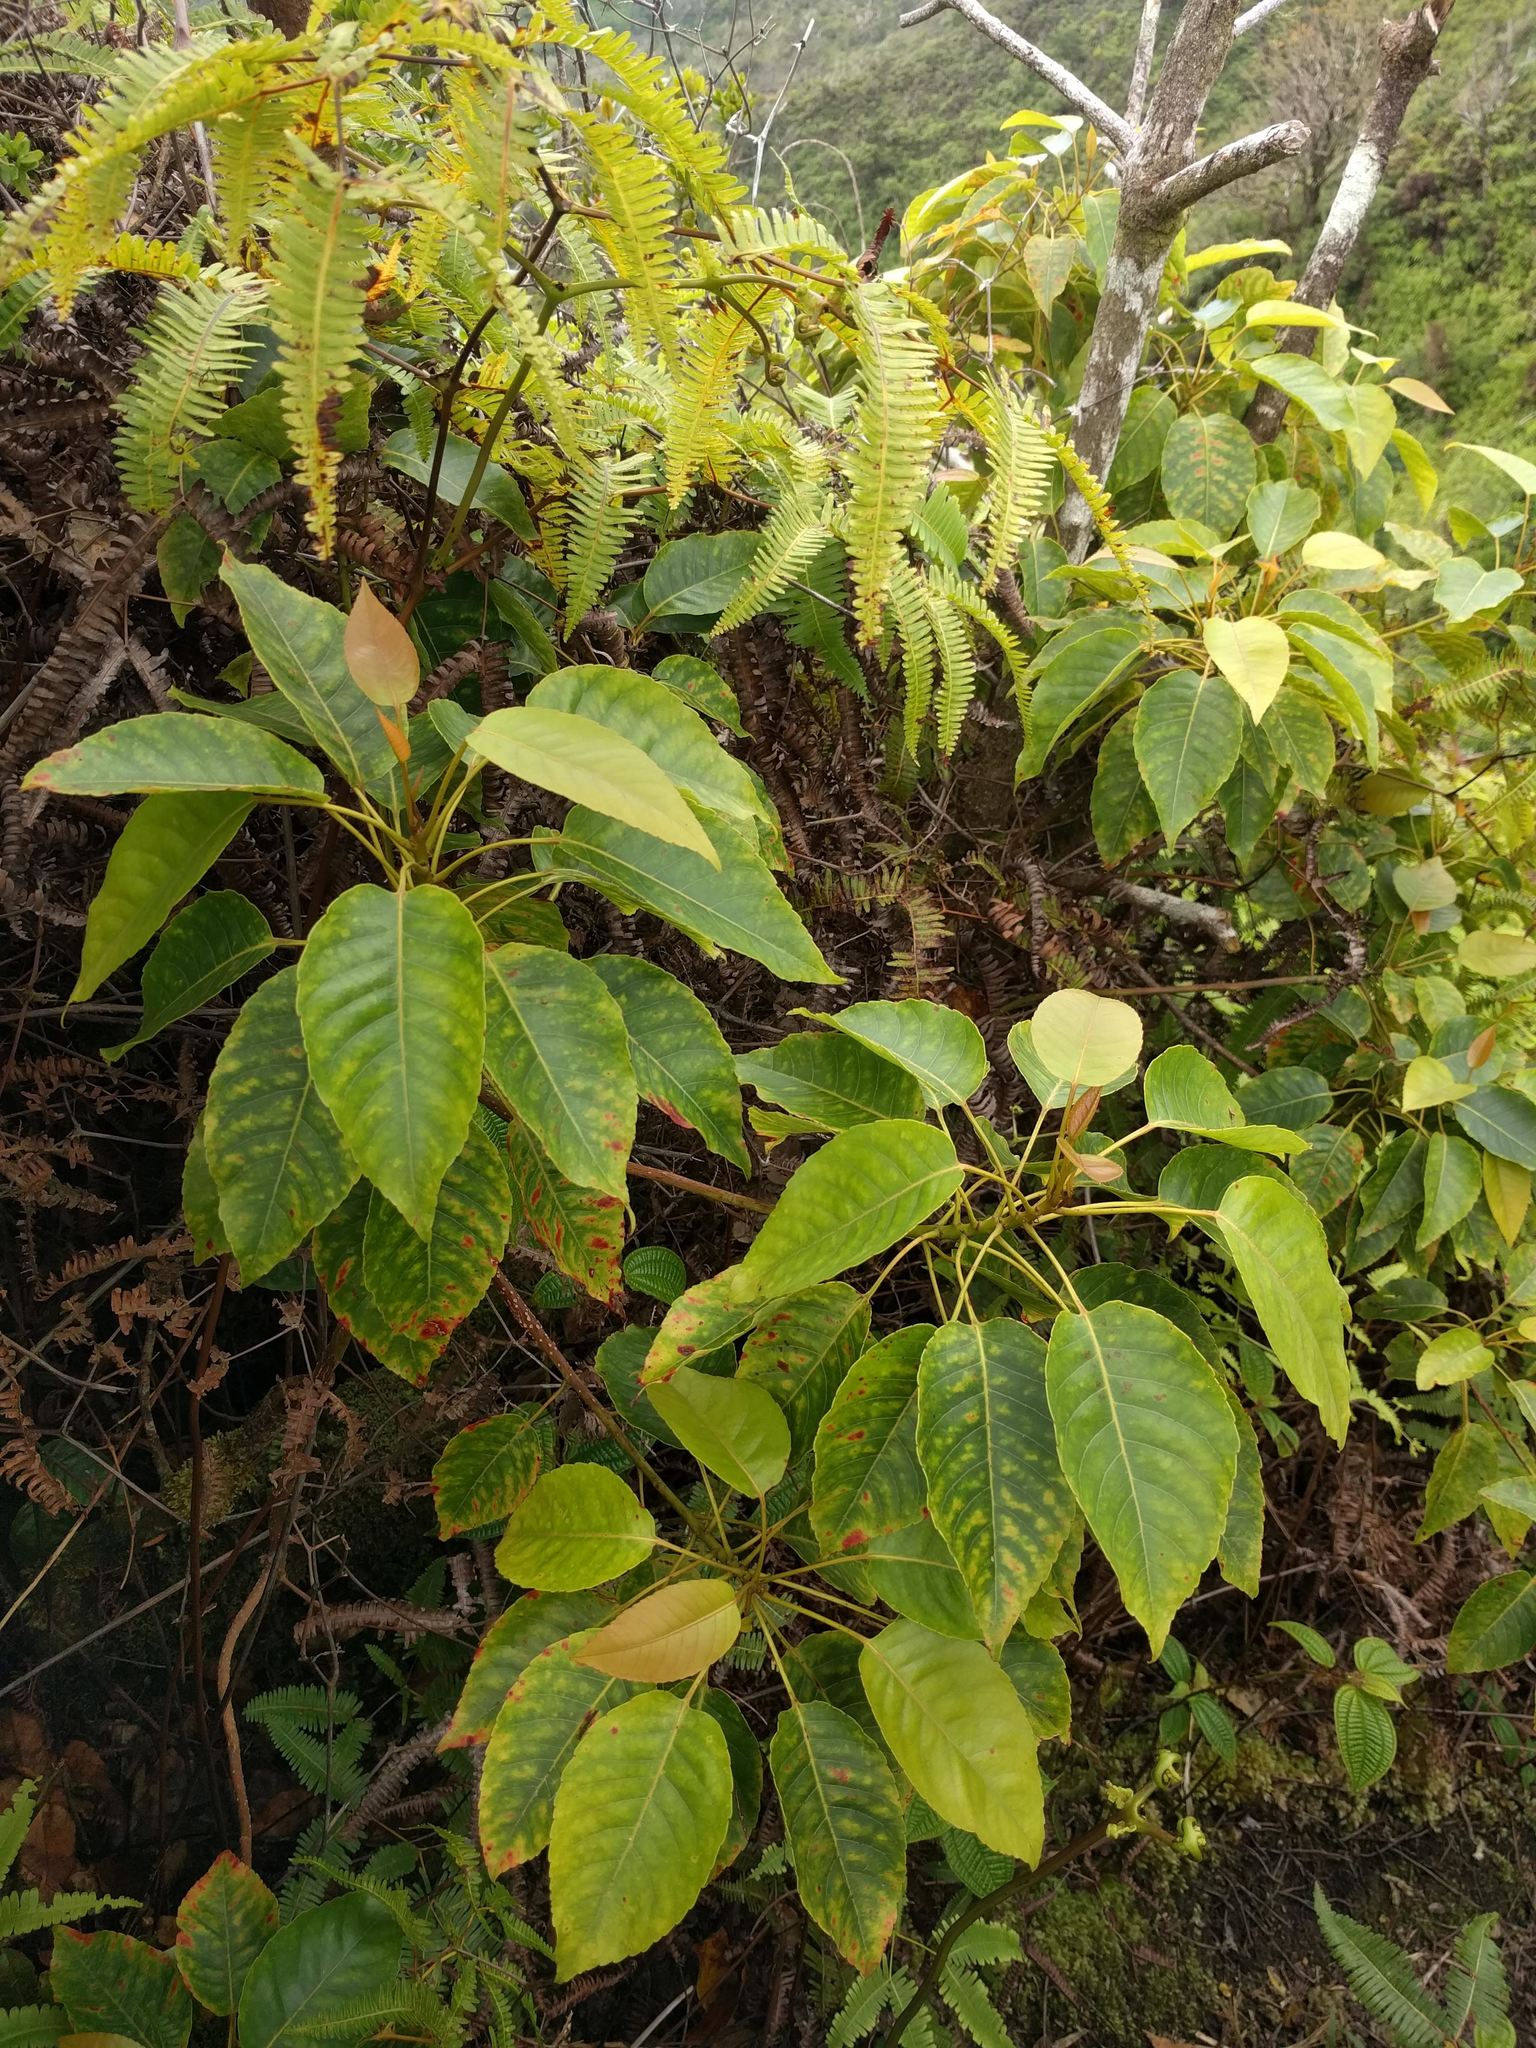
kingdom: Plantae
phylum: Tracheophyta
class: Magnoliopsida
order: Oxalidales
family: Elaeocarpaceae
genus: Elaeocarpus
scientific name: Elaeocarpus bifidus
